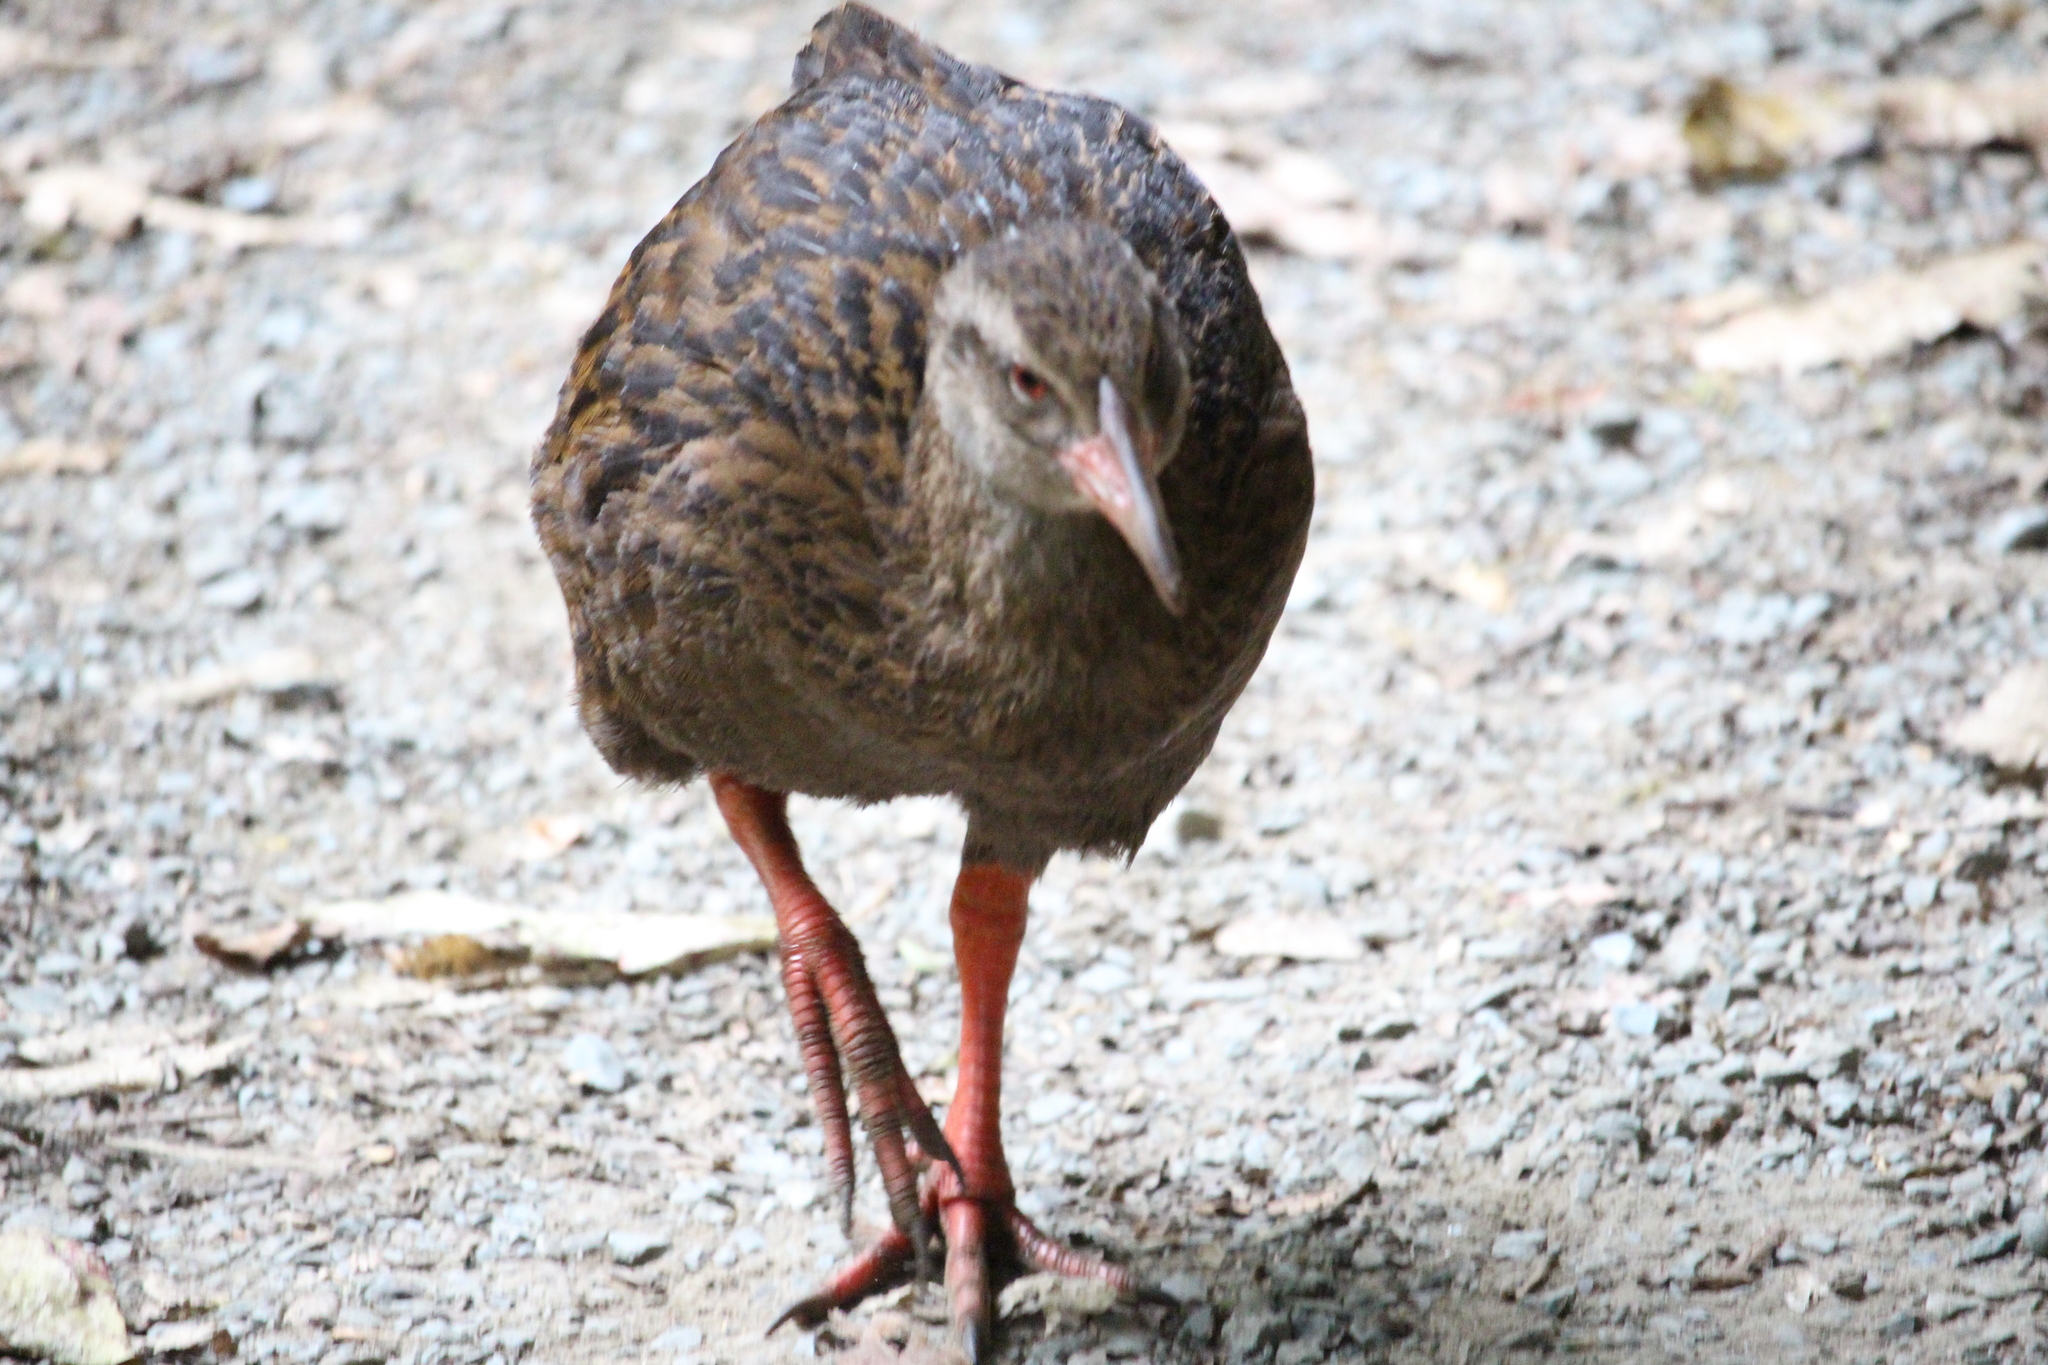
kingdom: Animalia
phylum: Chordata
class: Aves
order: Gruiformes
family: Rallidae
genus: Gallirallus
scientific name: Gallirallus australis
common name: Weka
